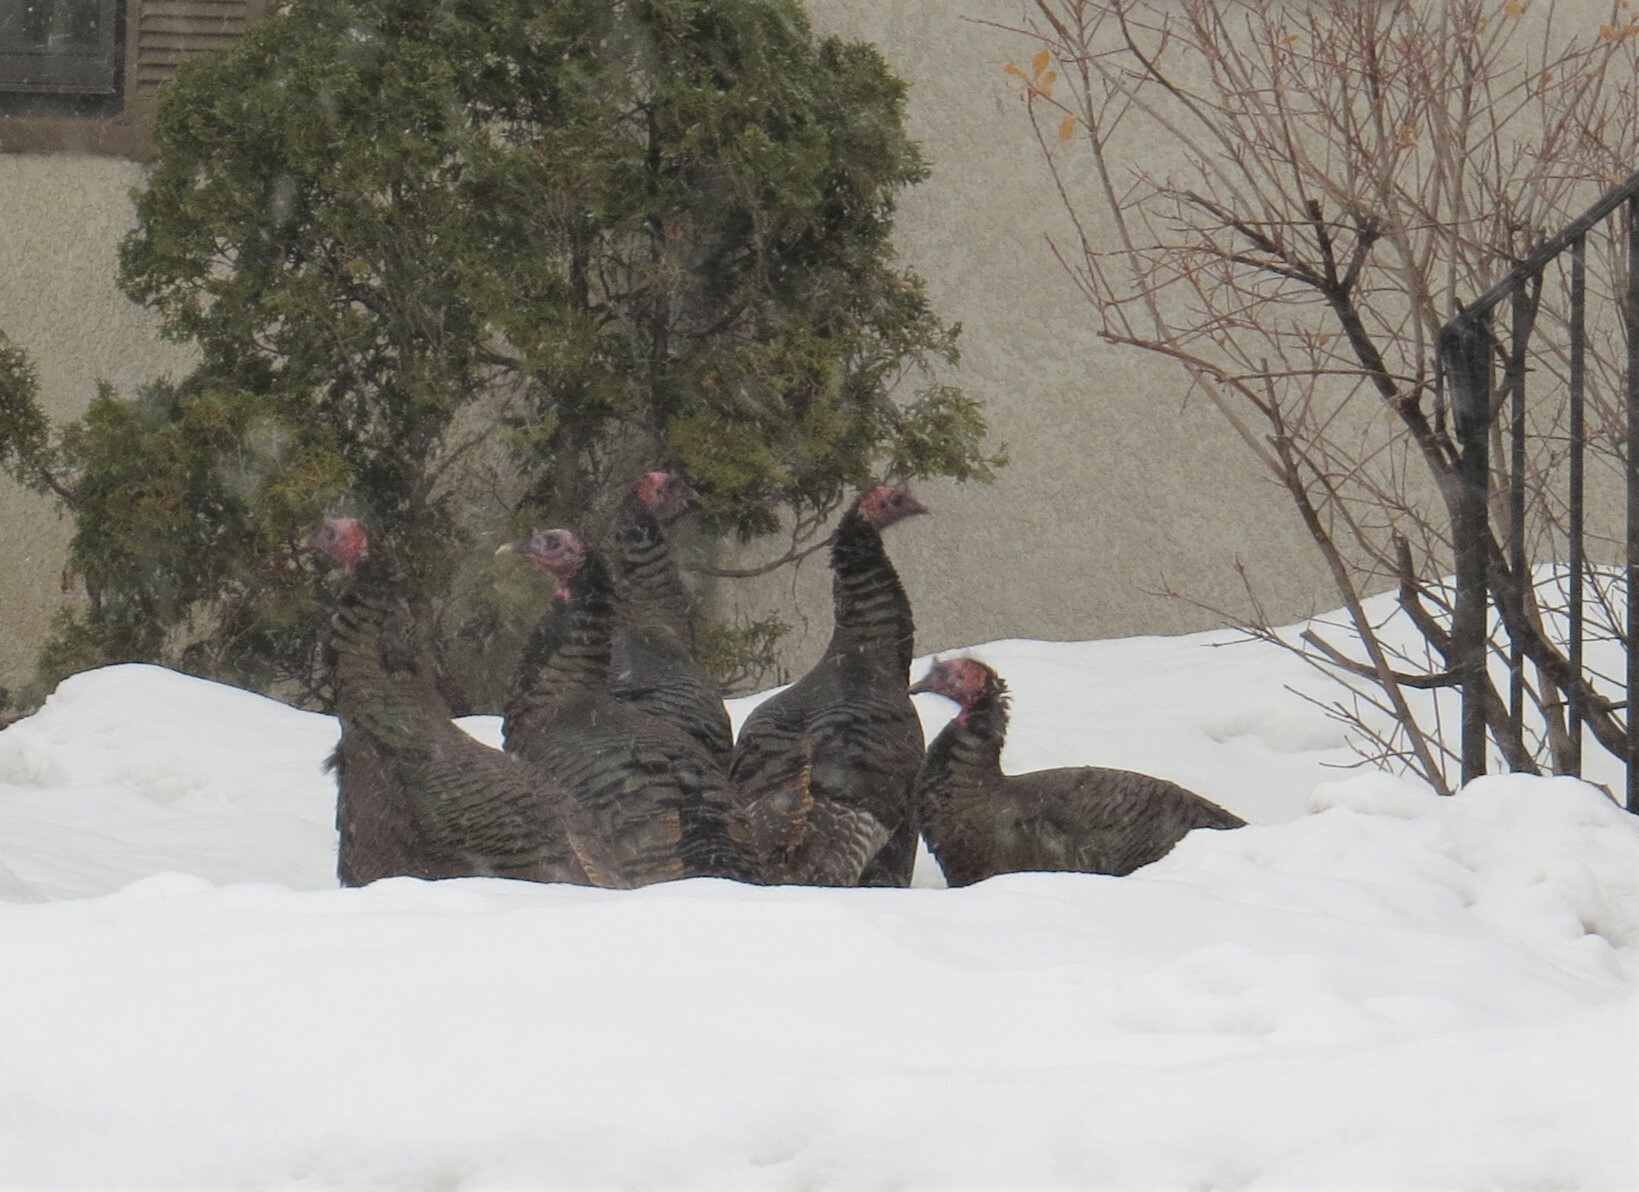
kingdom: Animalia
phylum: Chordata
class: Aves
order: Galliformes
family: Phasianidae
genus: Meleagris
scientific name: Meleagris gallopavo
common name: Wild turkey
